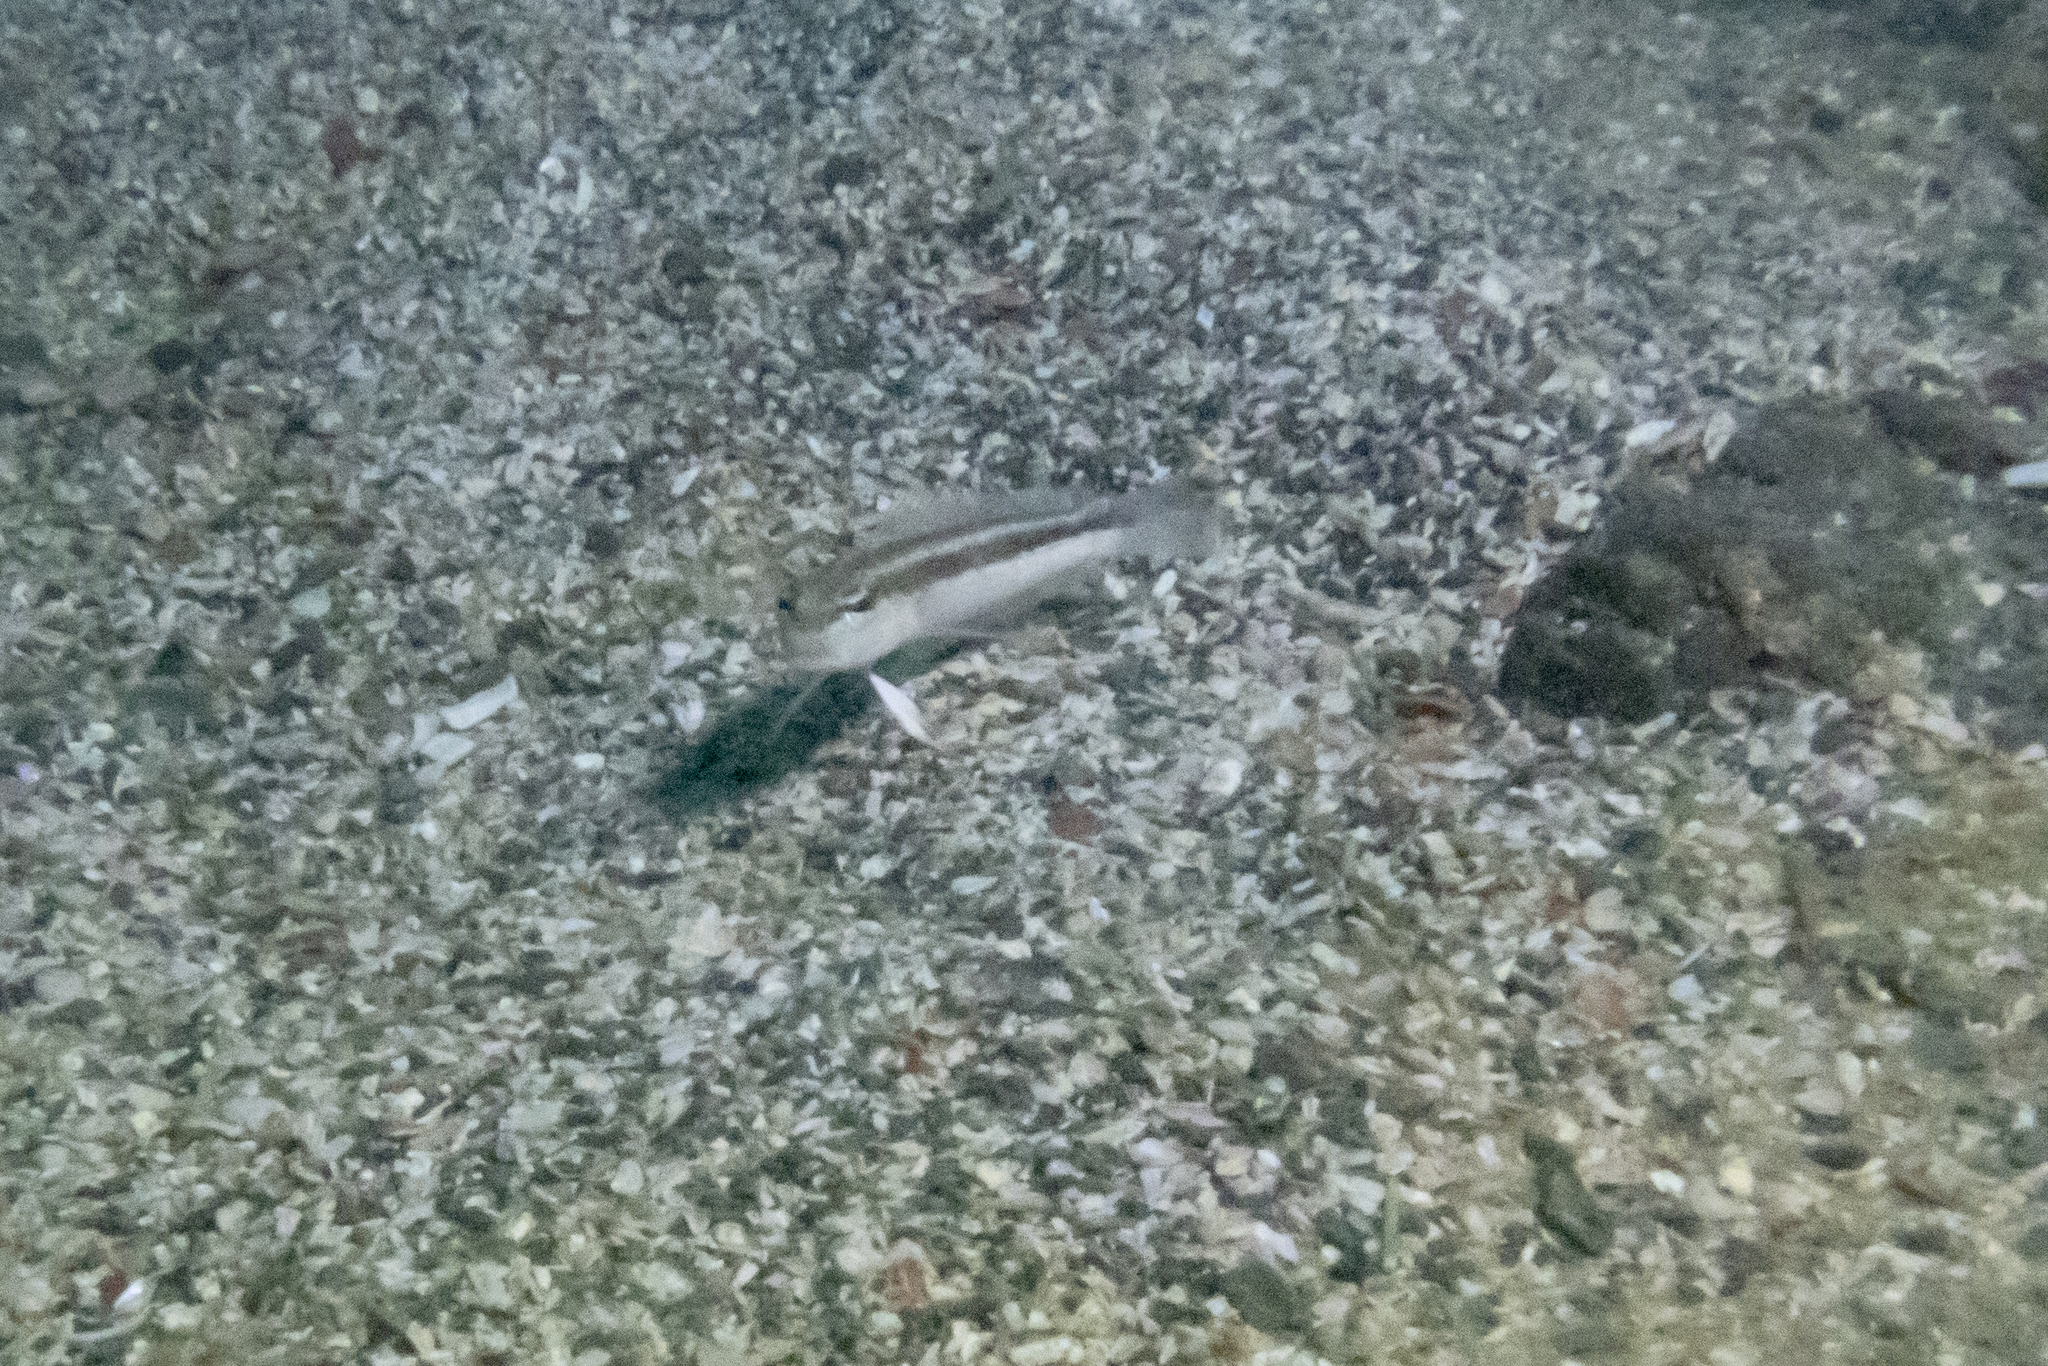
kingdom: Animalia
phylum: Chordata
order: Perciformes
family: Pinguipedidae
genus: Parapercis
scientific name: Parapercis colias
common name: Blue cod
